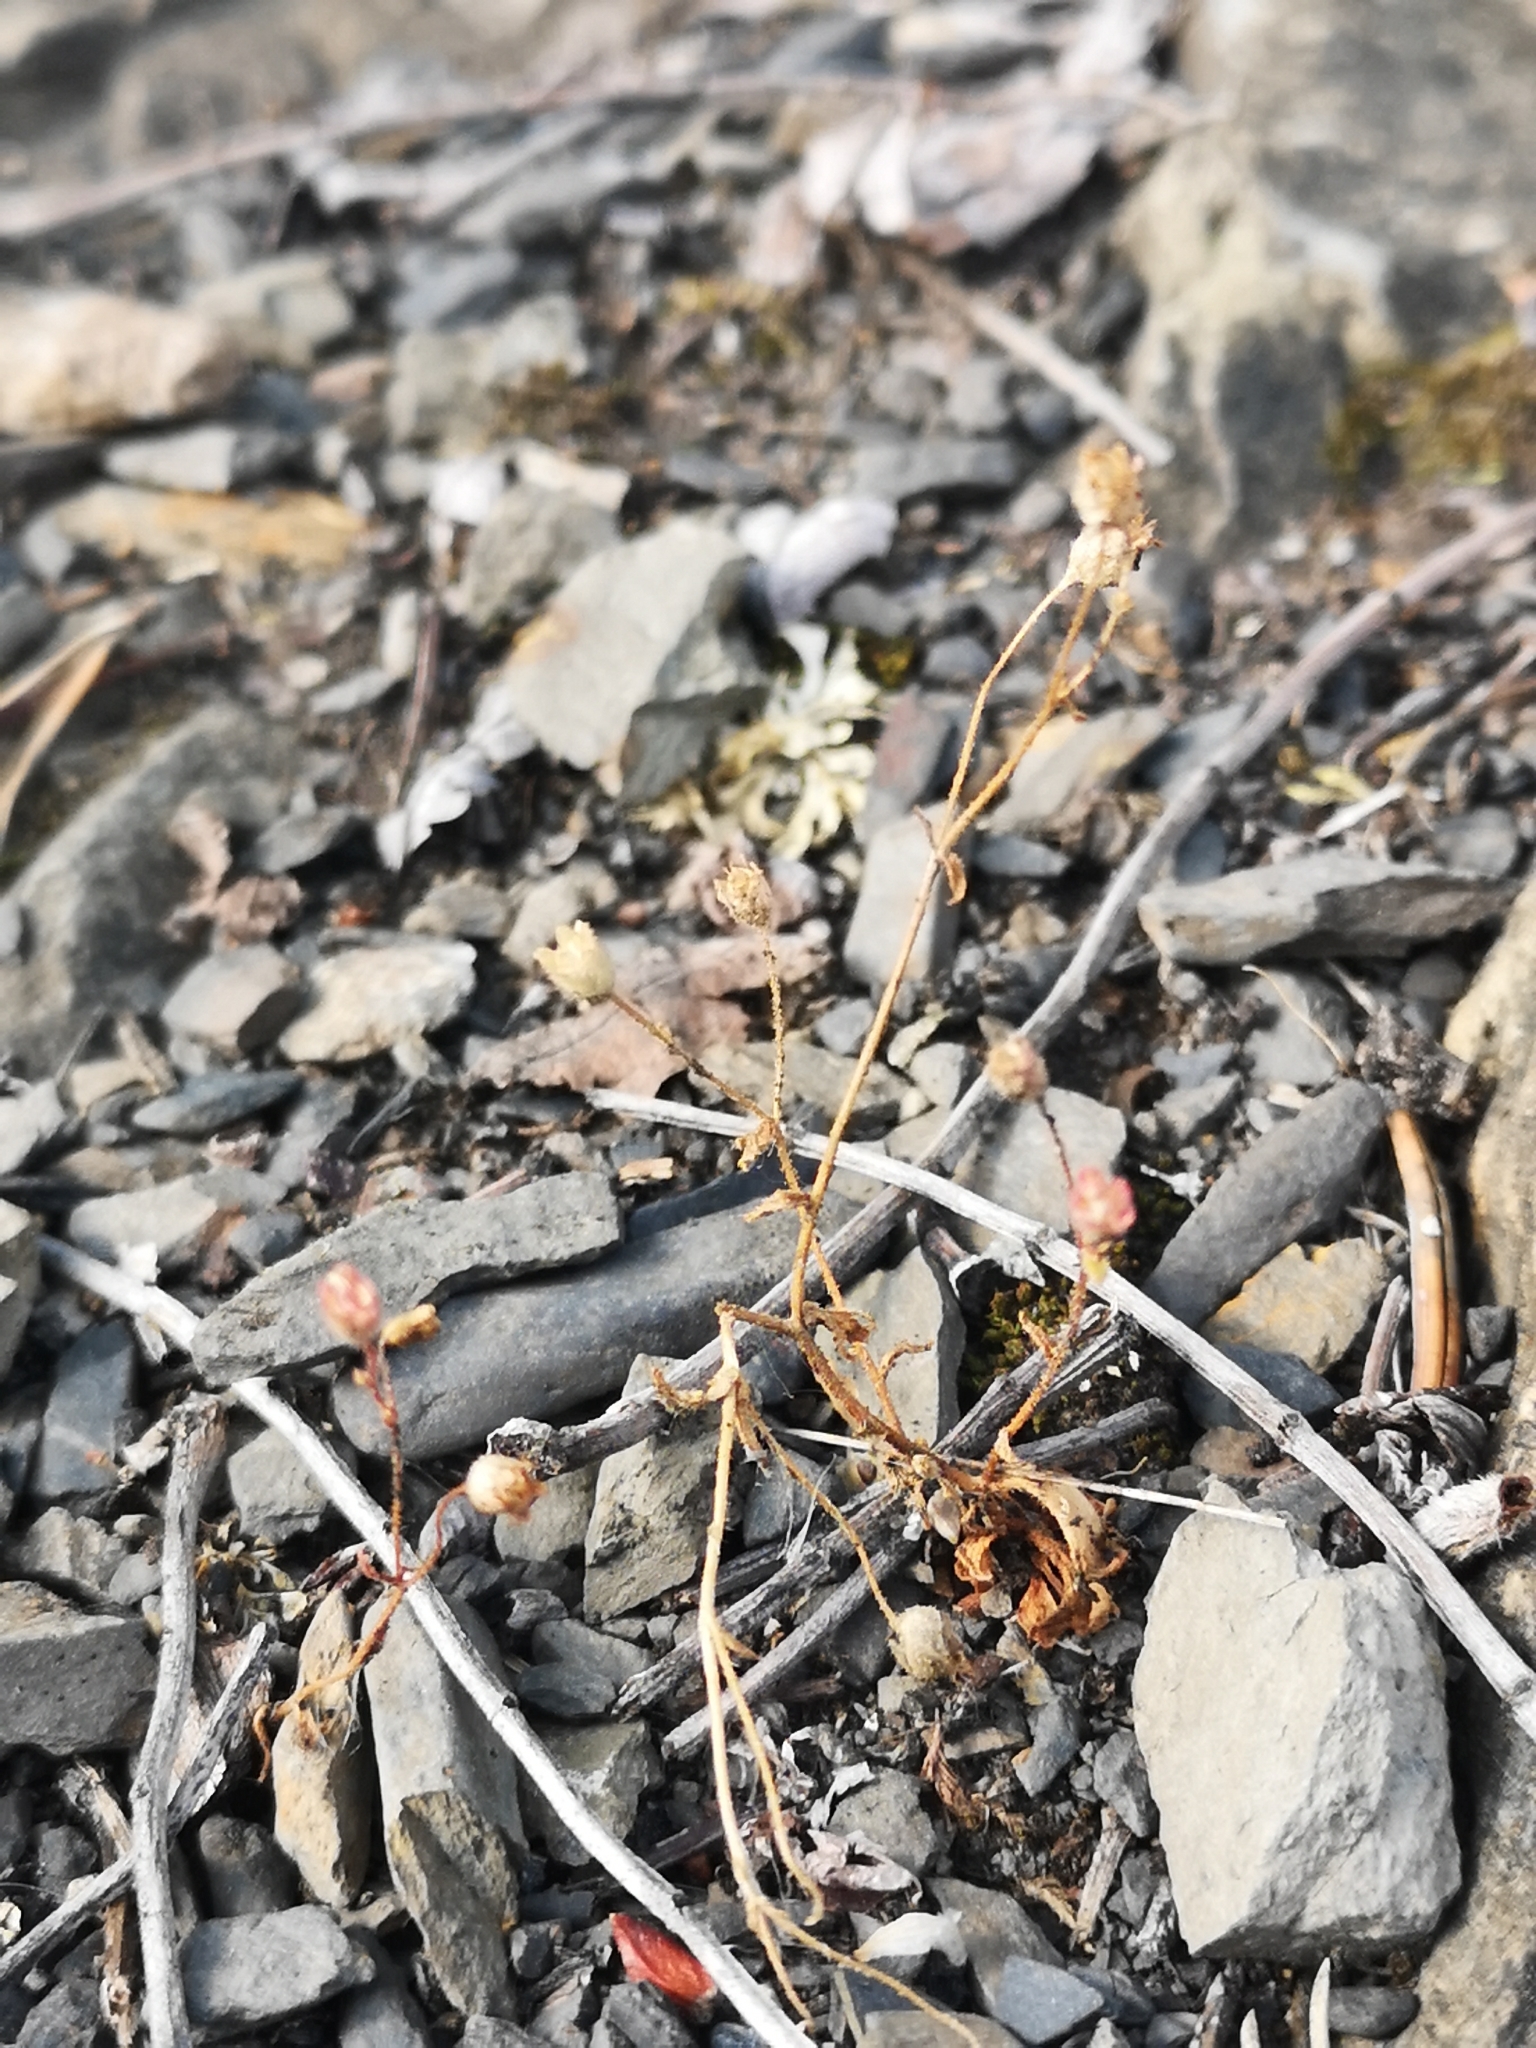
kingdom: Plantae
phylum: Tracheophyta
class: Magnoliopsida
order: Saxifragales
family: Saxifragaceae
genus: Saxifraga
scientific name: Saxifraga tridactylites
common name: Rue-leaved saxifrage
